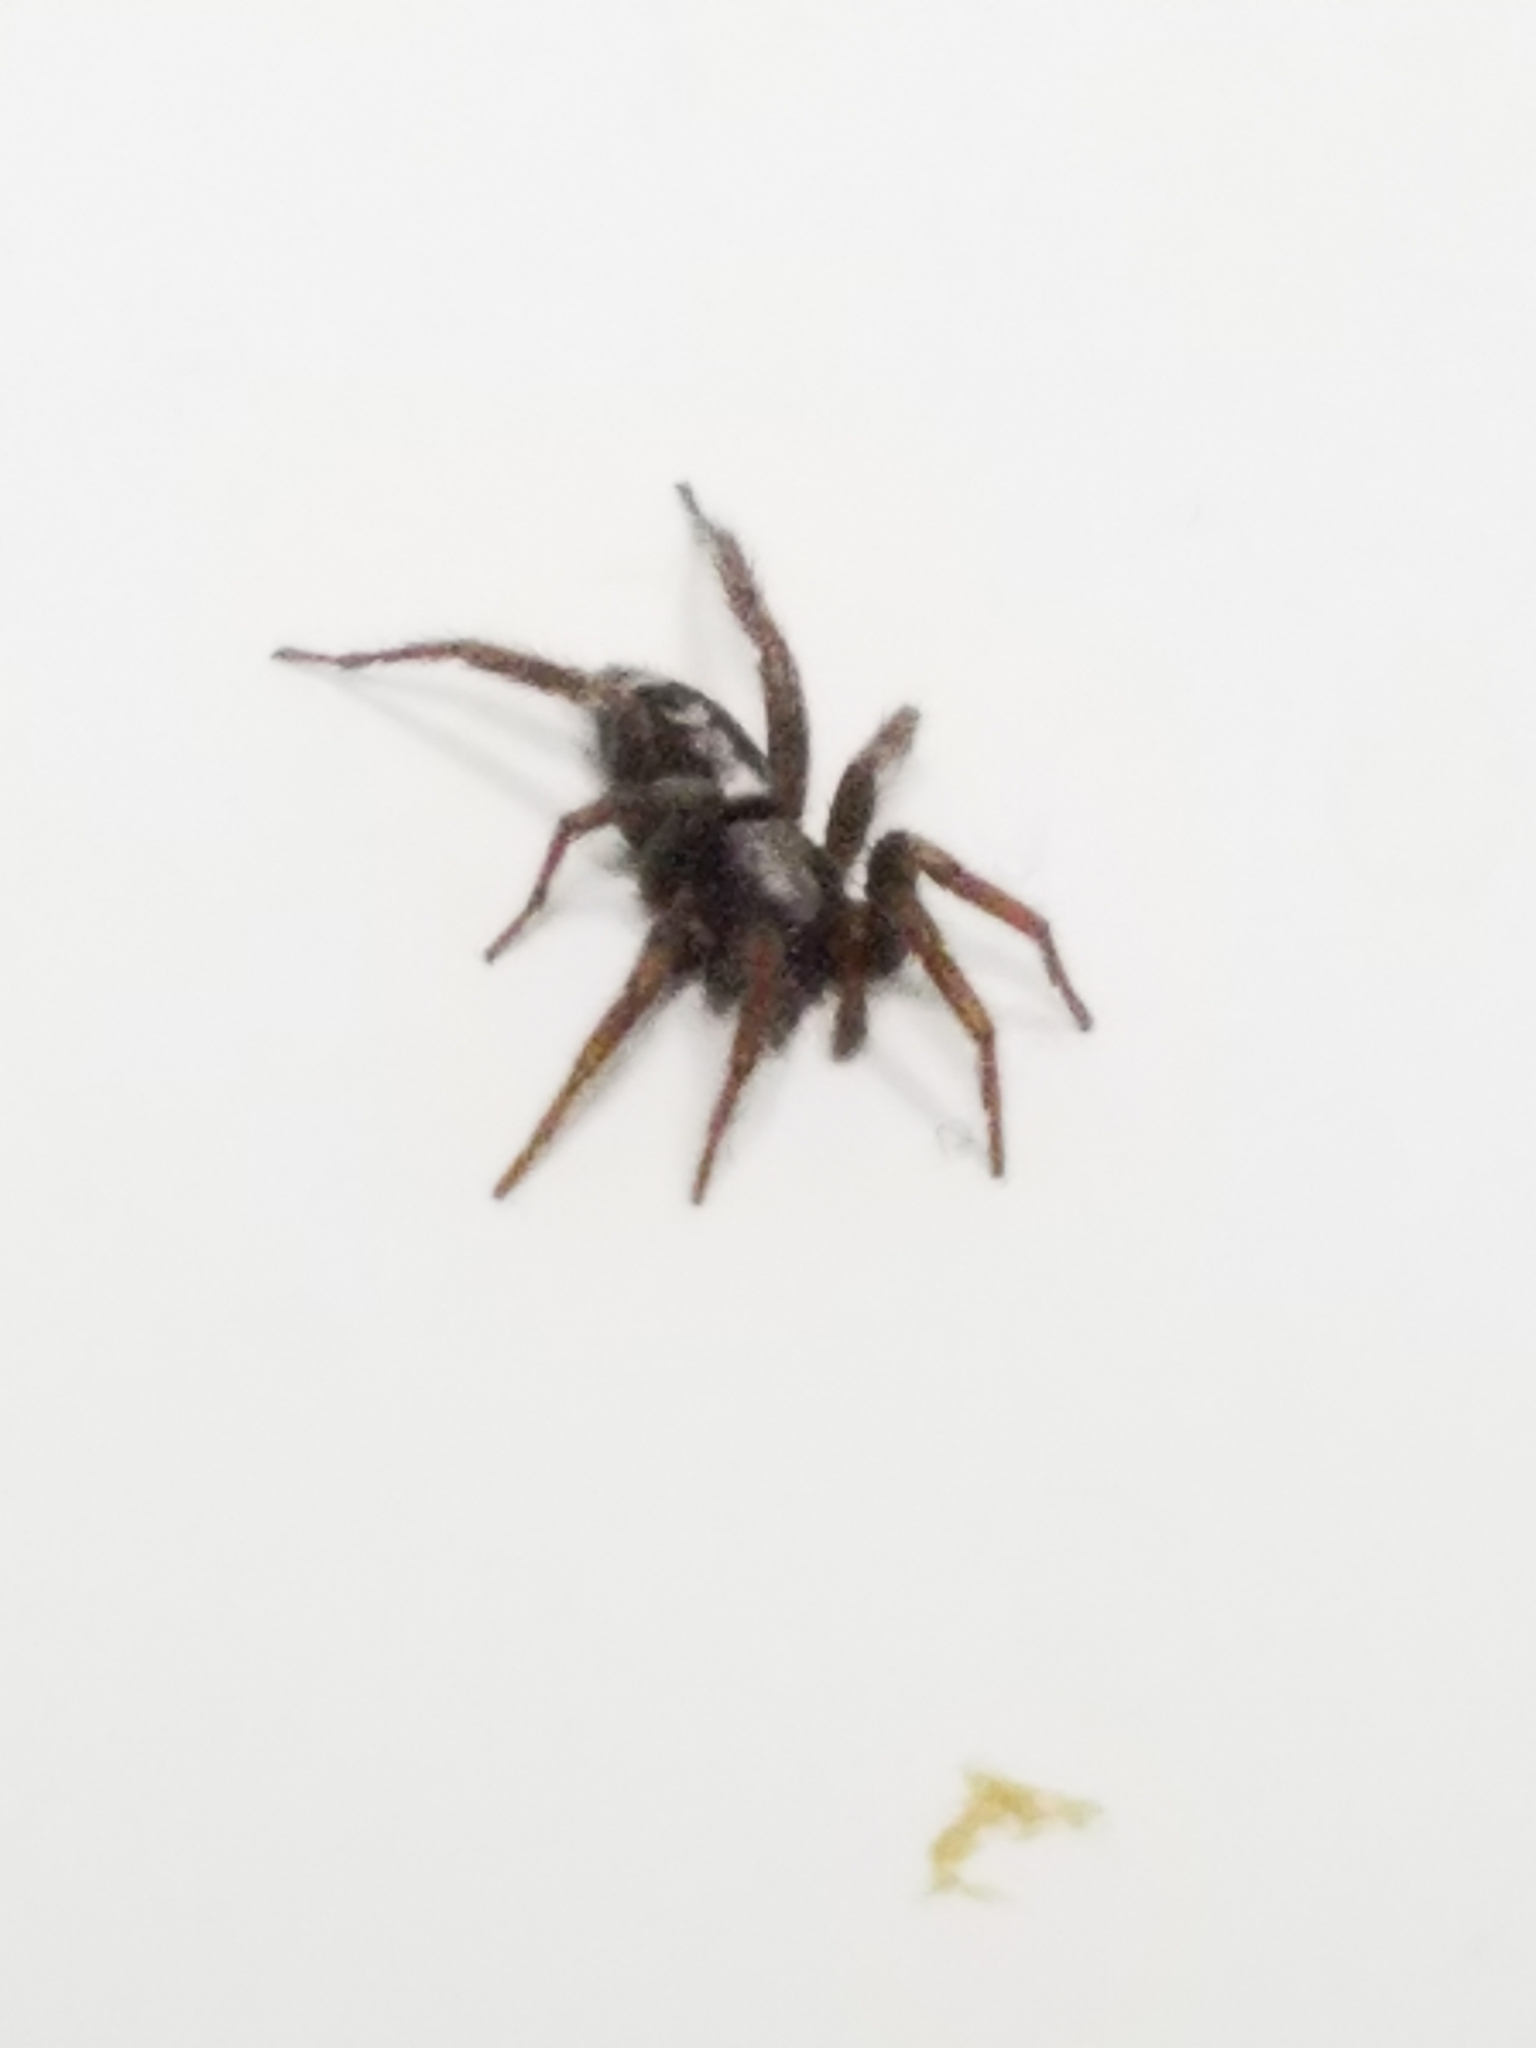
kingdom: Animalia
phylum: Arthropoda
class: Arachnida
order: Araneae
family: Gnaphosidae
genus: Herpyllus
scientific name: Herpyllus ecclesiasticus
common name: Eastern parson spider
